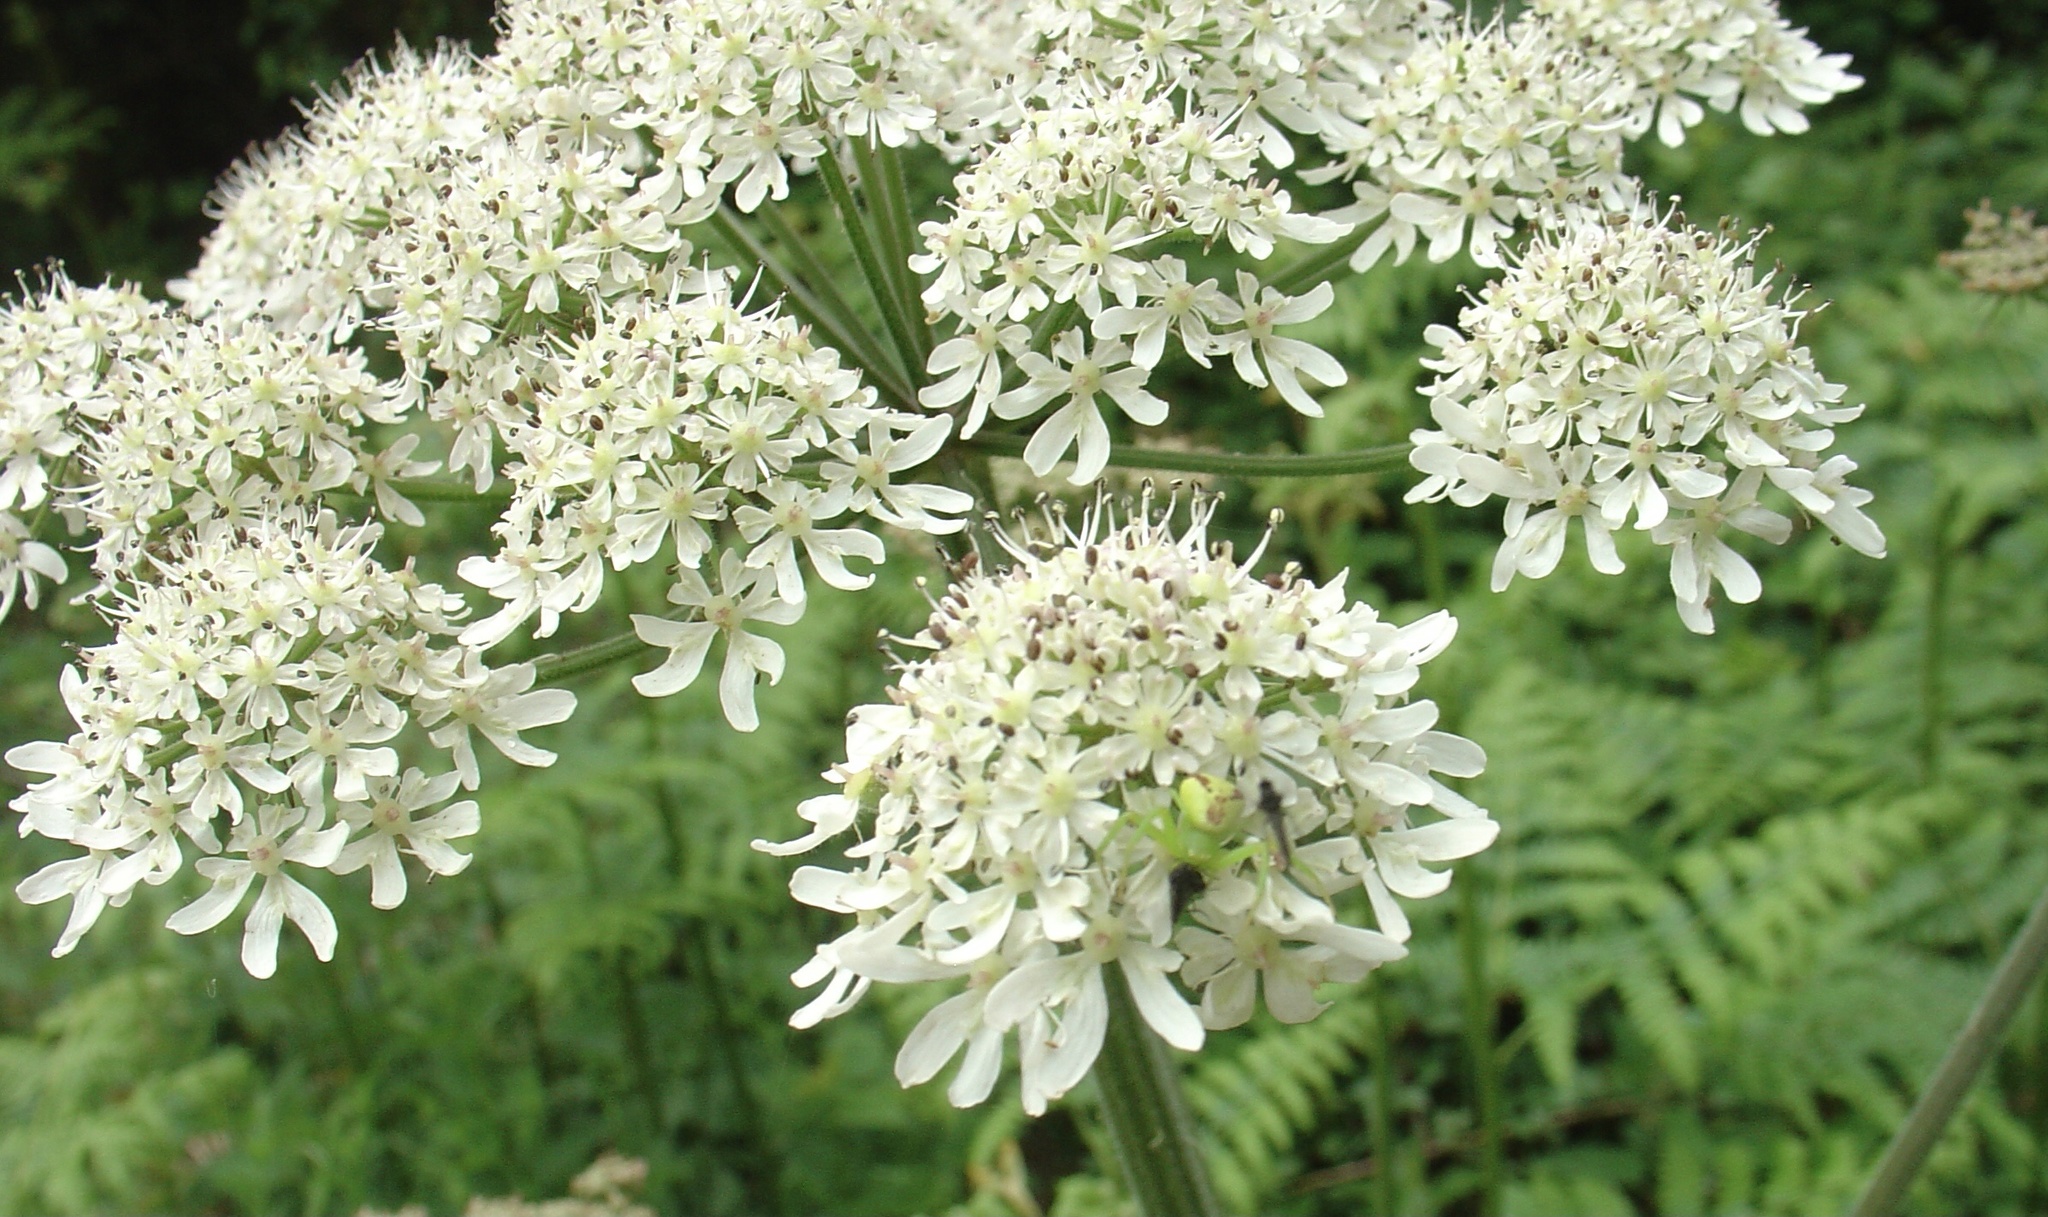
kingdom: Plantae
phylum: Tracheophyta
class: Magnoliopsida
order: Apiales
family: Apiaceae
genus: Heracleum
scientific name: Heracleum sphondylium
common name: Hogweed
